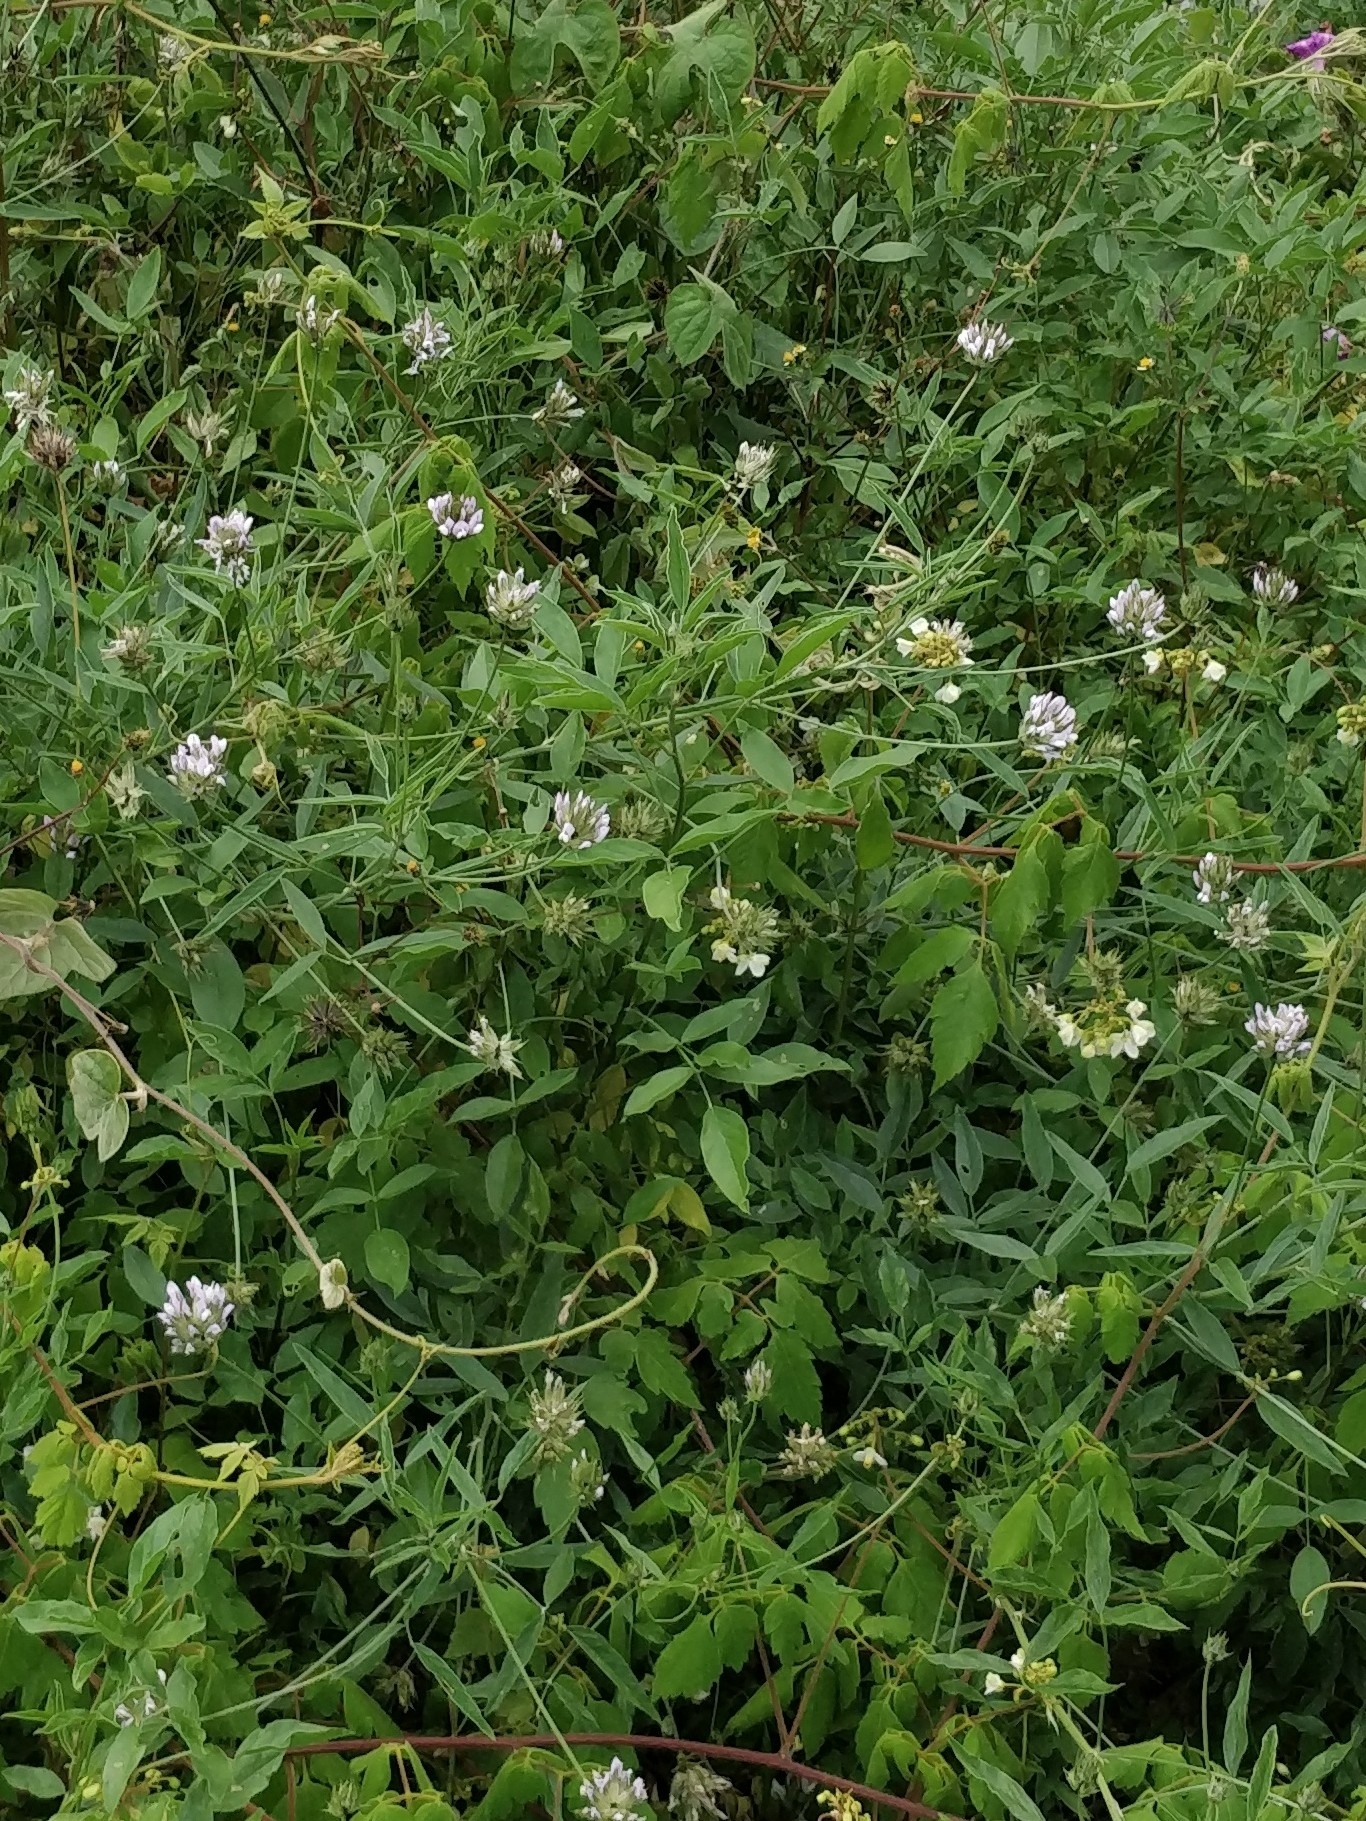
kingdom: Plantae
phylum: Tracheophyta
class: Magnoliopsida
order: Fabales
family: Fabaceae
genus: Bituminaria
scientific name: Bituminaria bituminosa
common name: Arabian pea
